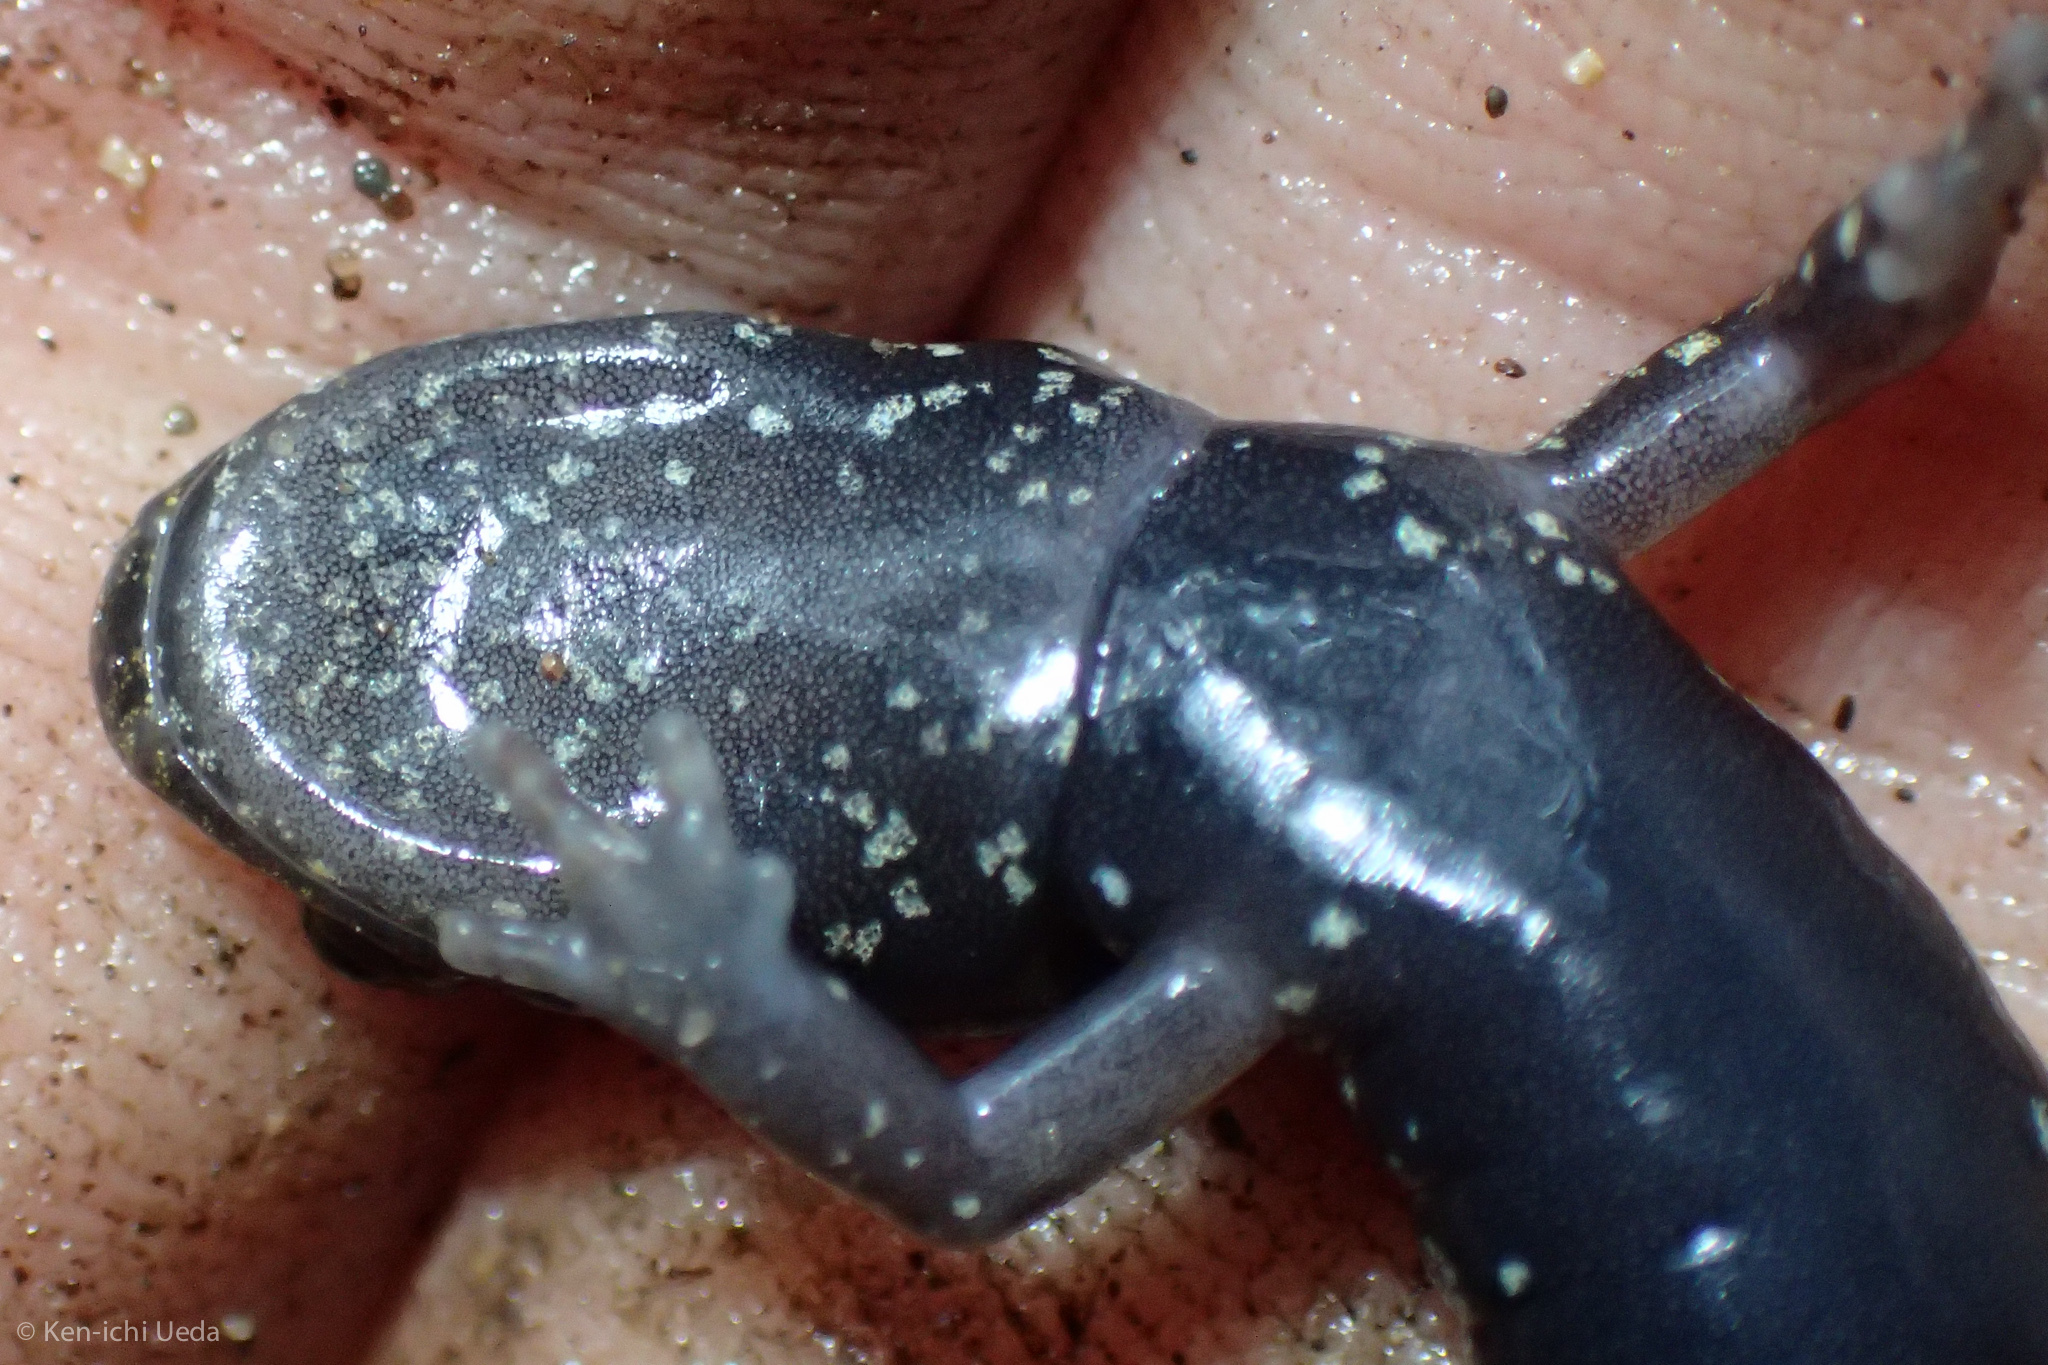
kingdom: Animalia
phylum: Chordata
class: Amphibia
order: Caudata
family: Plethodontidae
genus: Aneides
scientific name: Aneides flavipunctatus
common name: Black salamander
